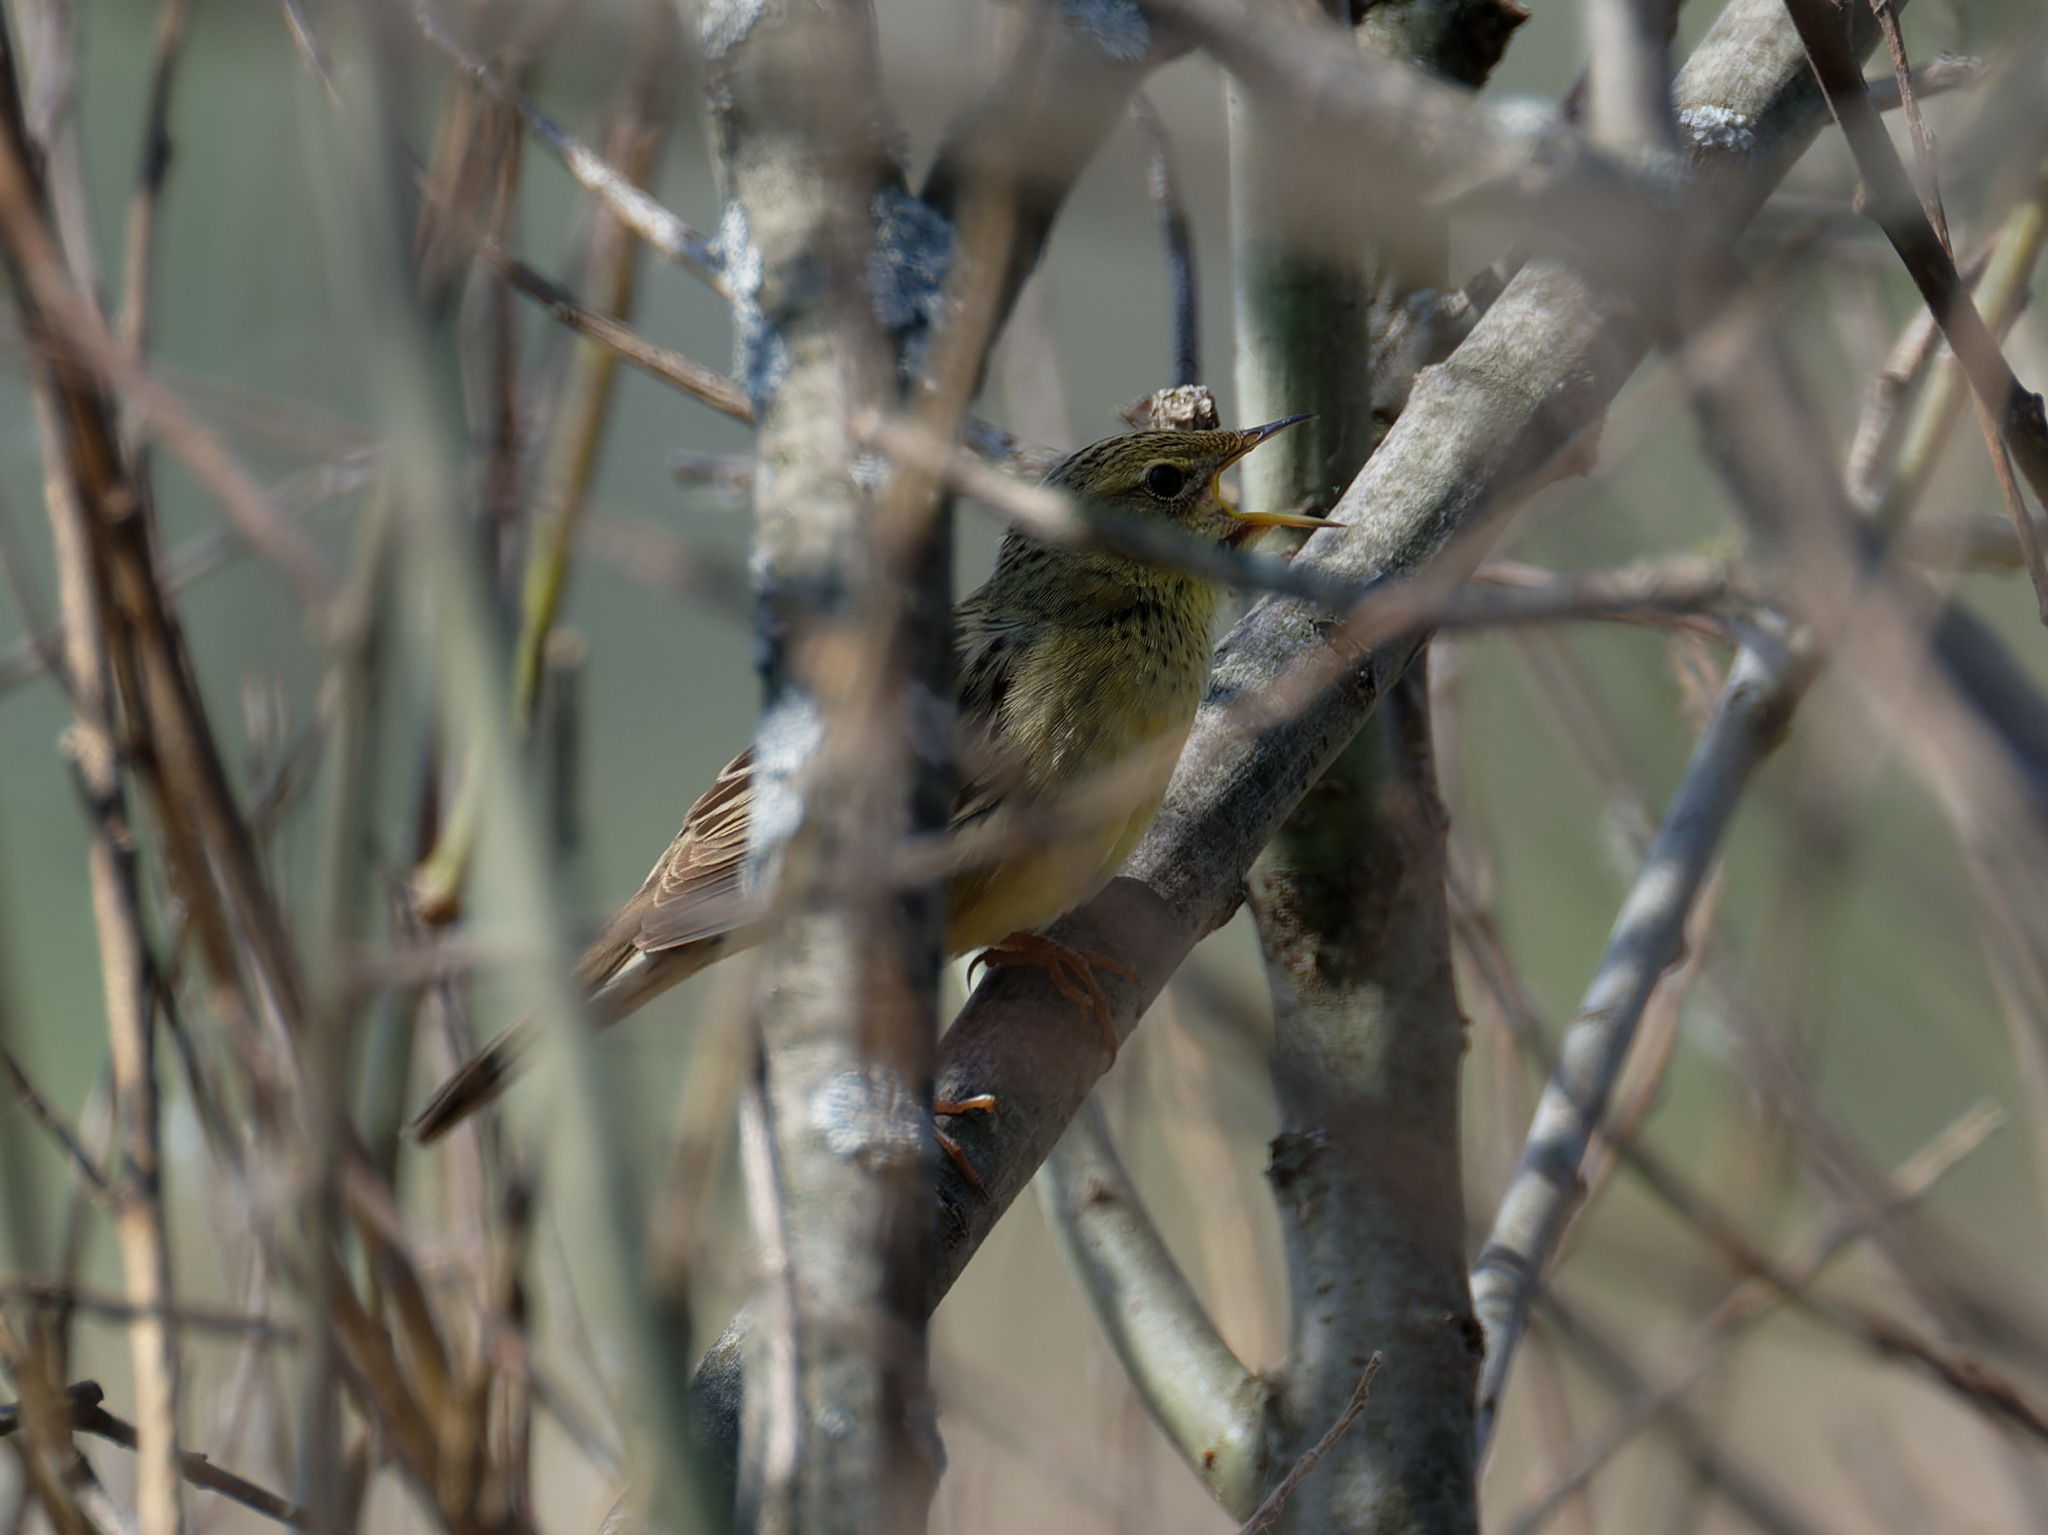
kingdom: Animalia
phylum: Chordata
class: Aves
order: Passeriformes
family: Locustellidae
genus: Locustella
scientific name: Locustella naevia
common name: Common grasshopper warbler
